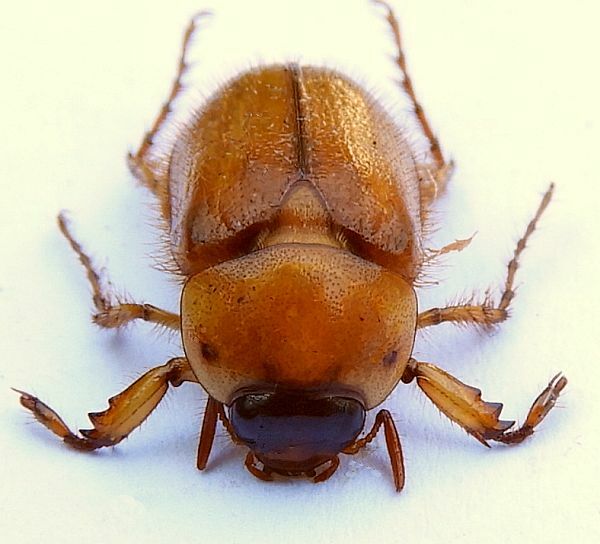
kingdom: Animalia
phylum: Arthropoda
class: Insecta
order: Coleoptera
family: Scarabaeidae
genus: Cyclocephala
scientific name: Cyclocephala borealis
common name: Northern masked chafer
